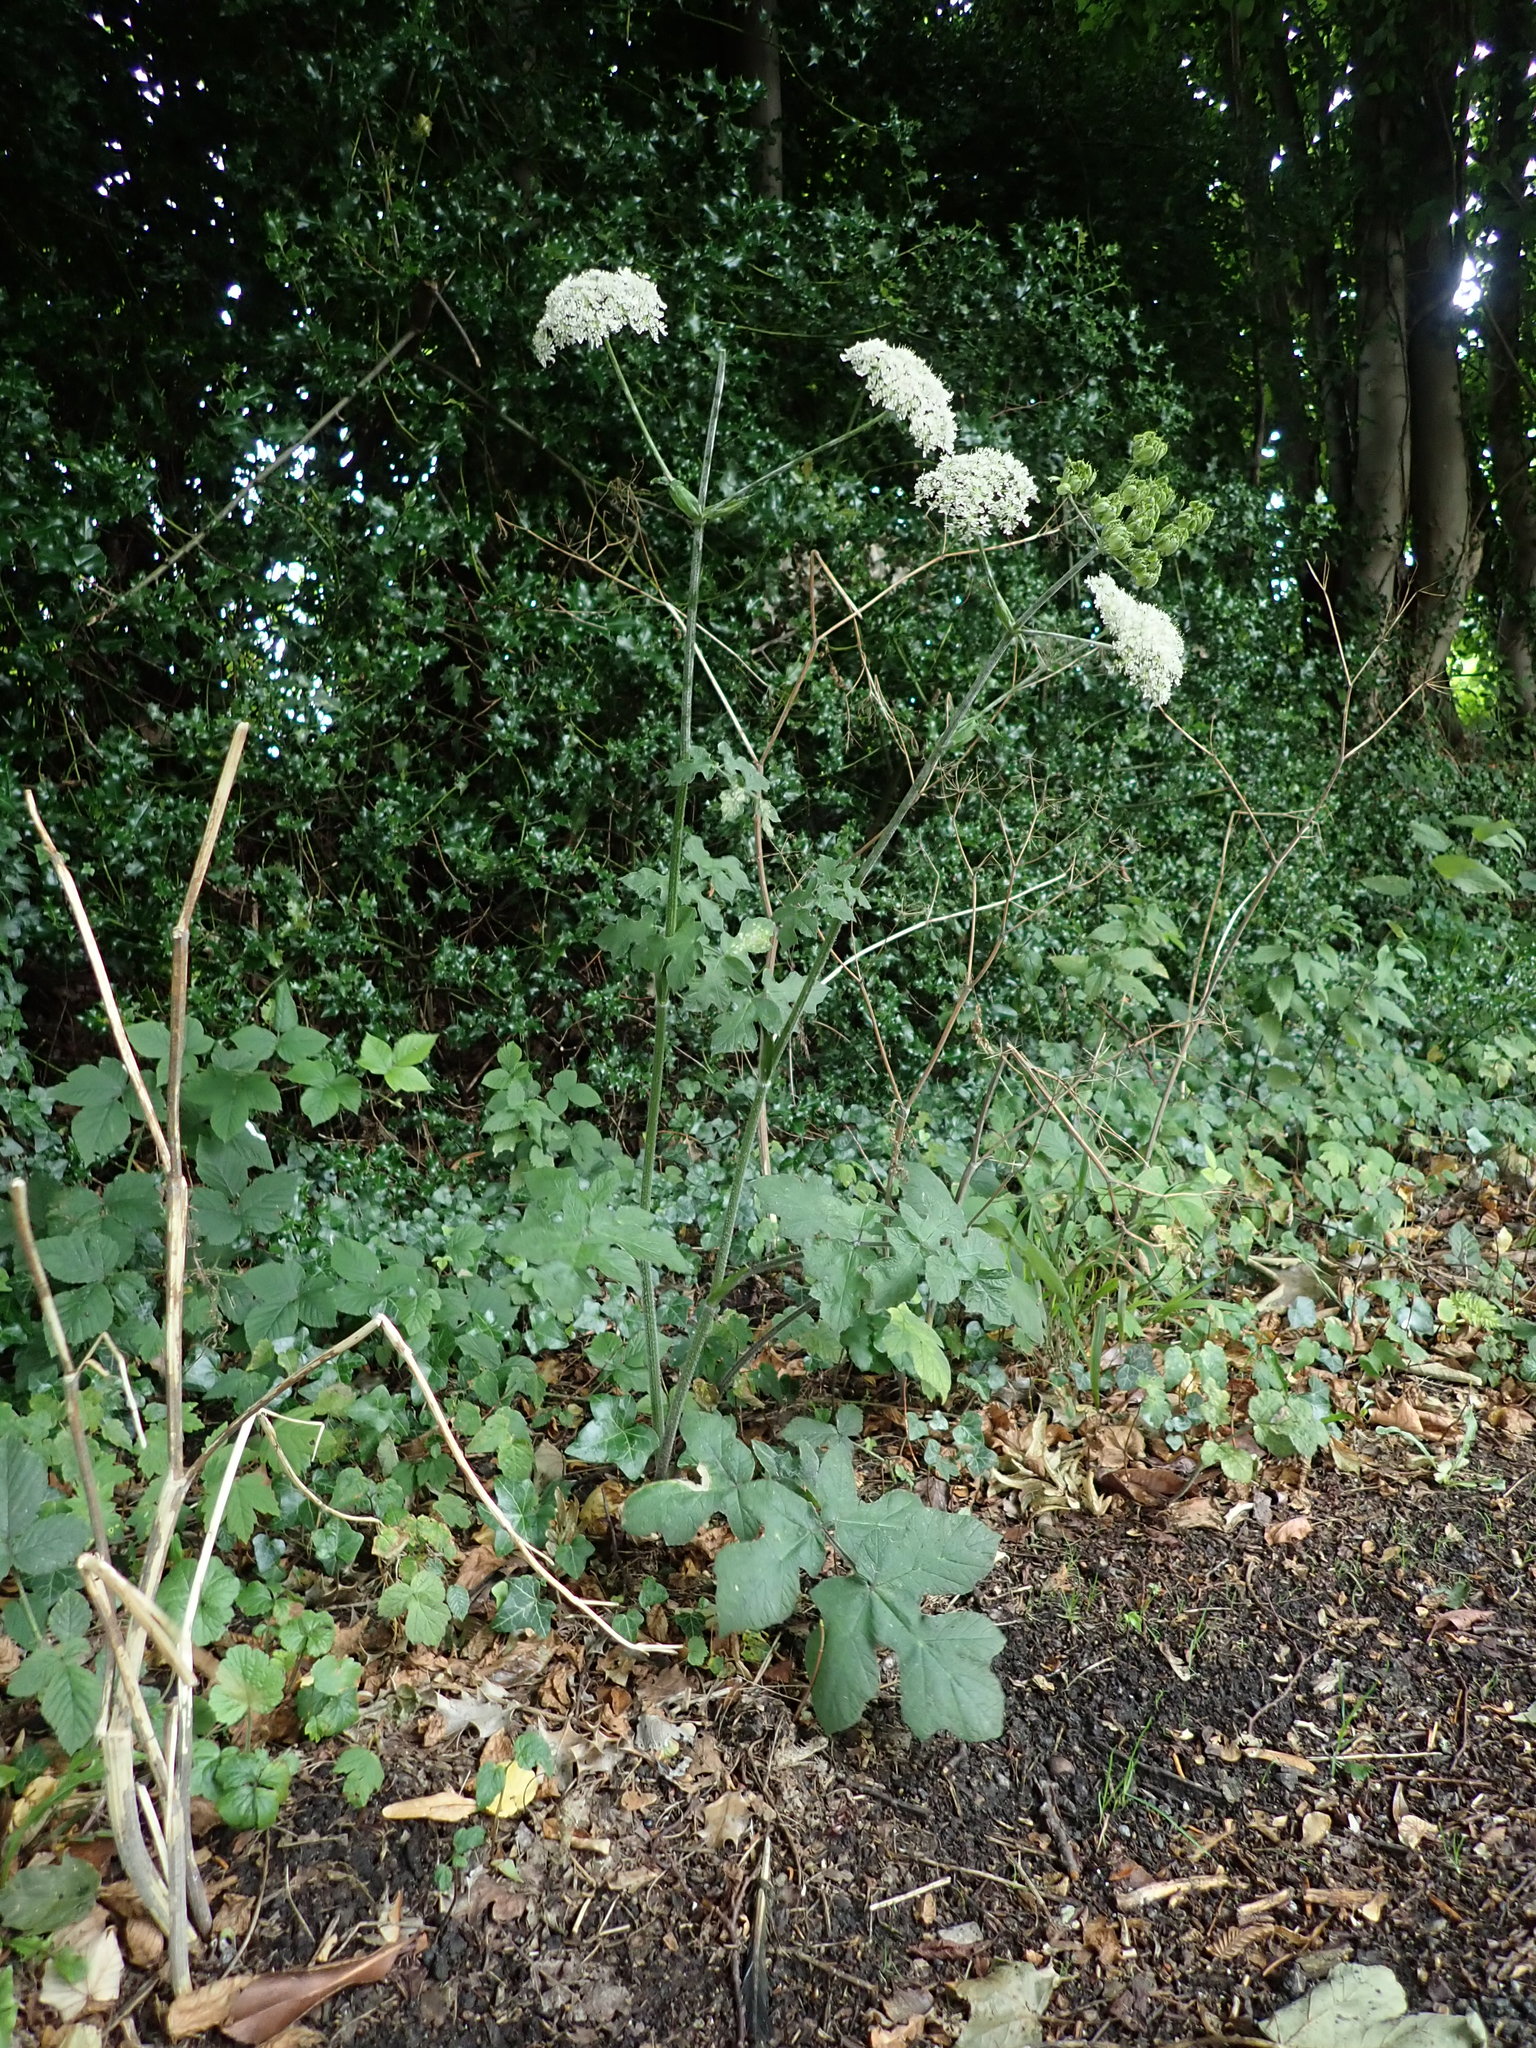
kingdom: Plantae
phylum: Tracheophyta
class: Magnoliopsida
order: Apiales
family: Apiaceae
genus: Heracleum
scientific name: Heracleum sphondylium
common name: Hogweed
